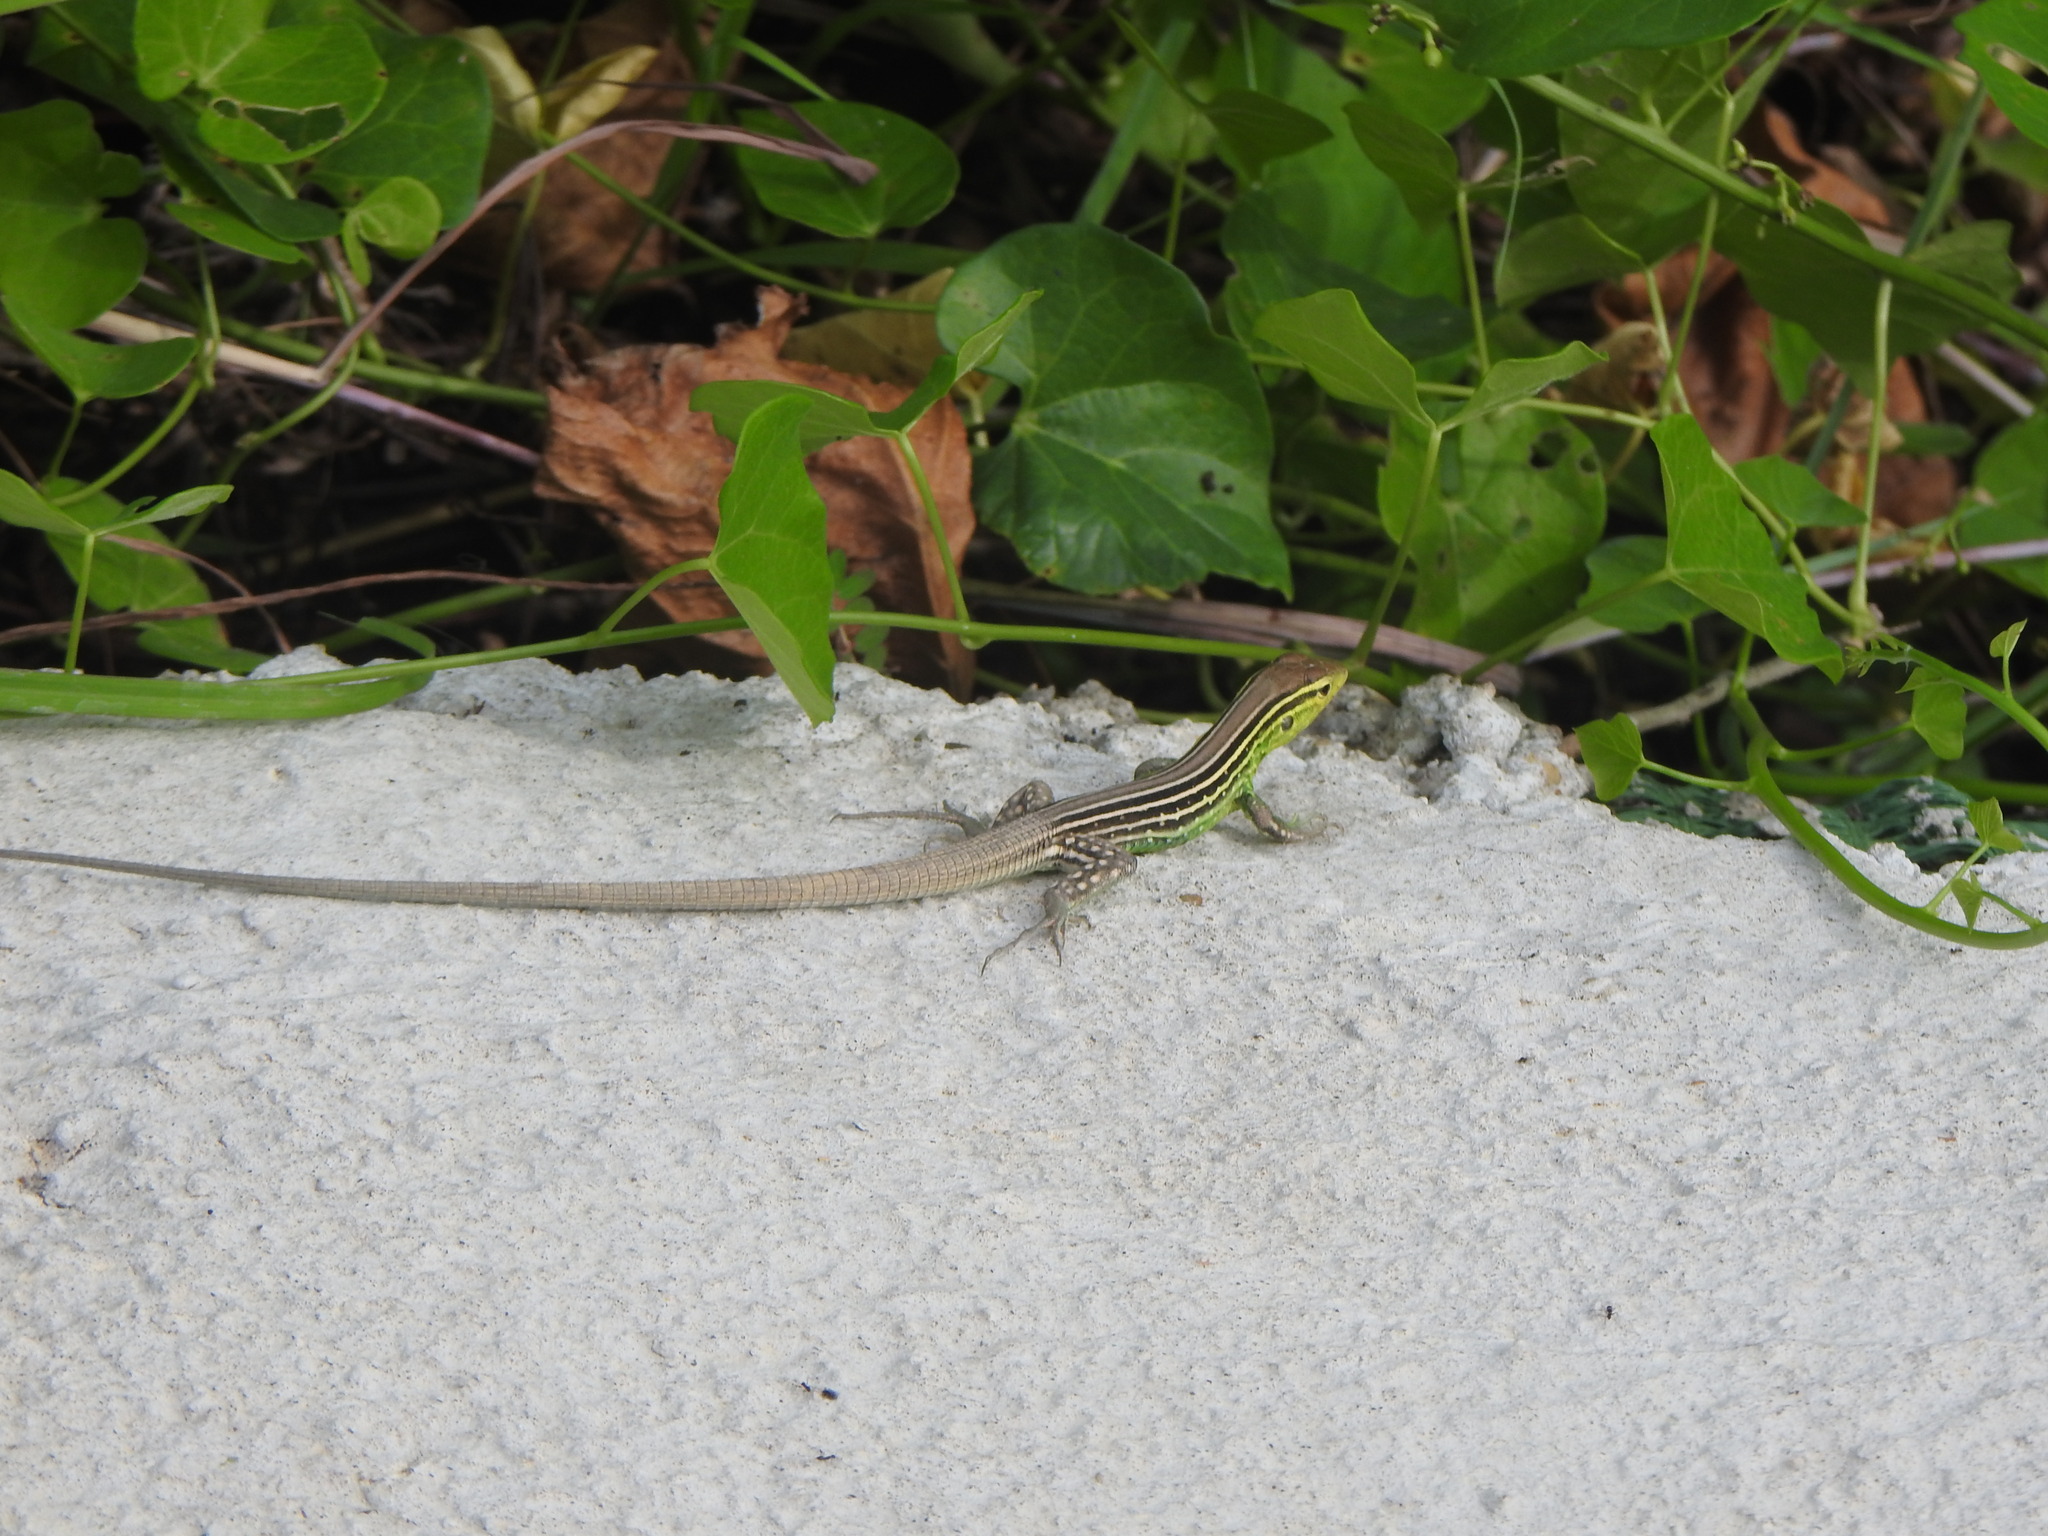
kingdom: Animalia
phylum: Chordata
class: Squamata
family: Teiidae
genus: Cnemidophorus
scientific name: Cnemidophorus gaigei
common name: Gaige’s rainbow lizard
